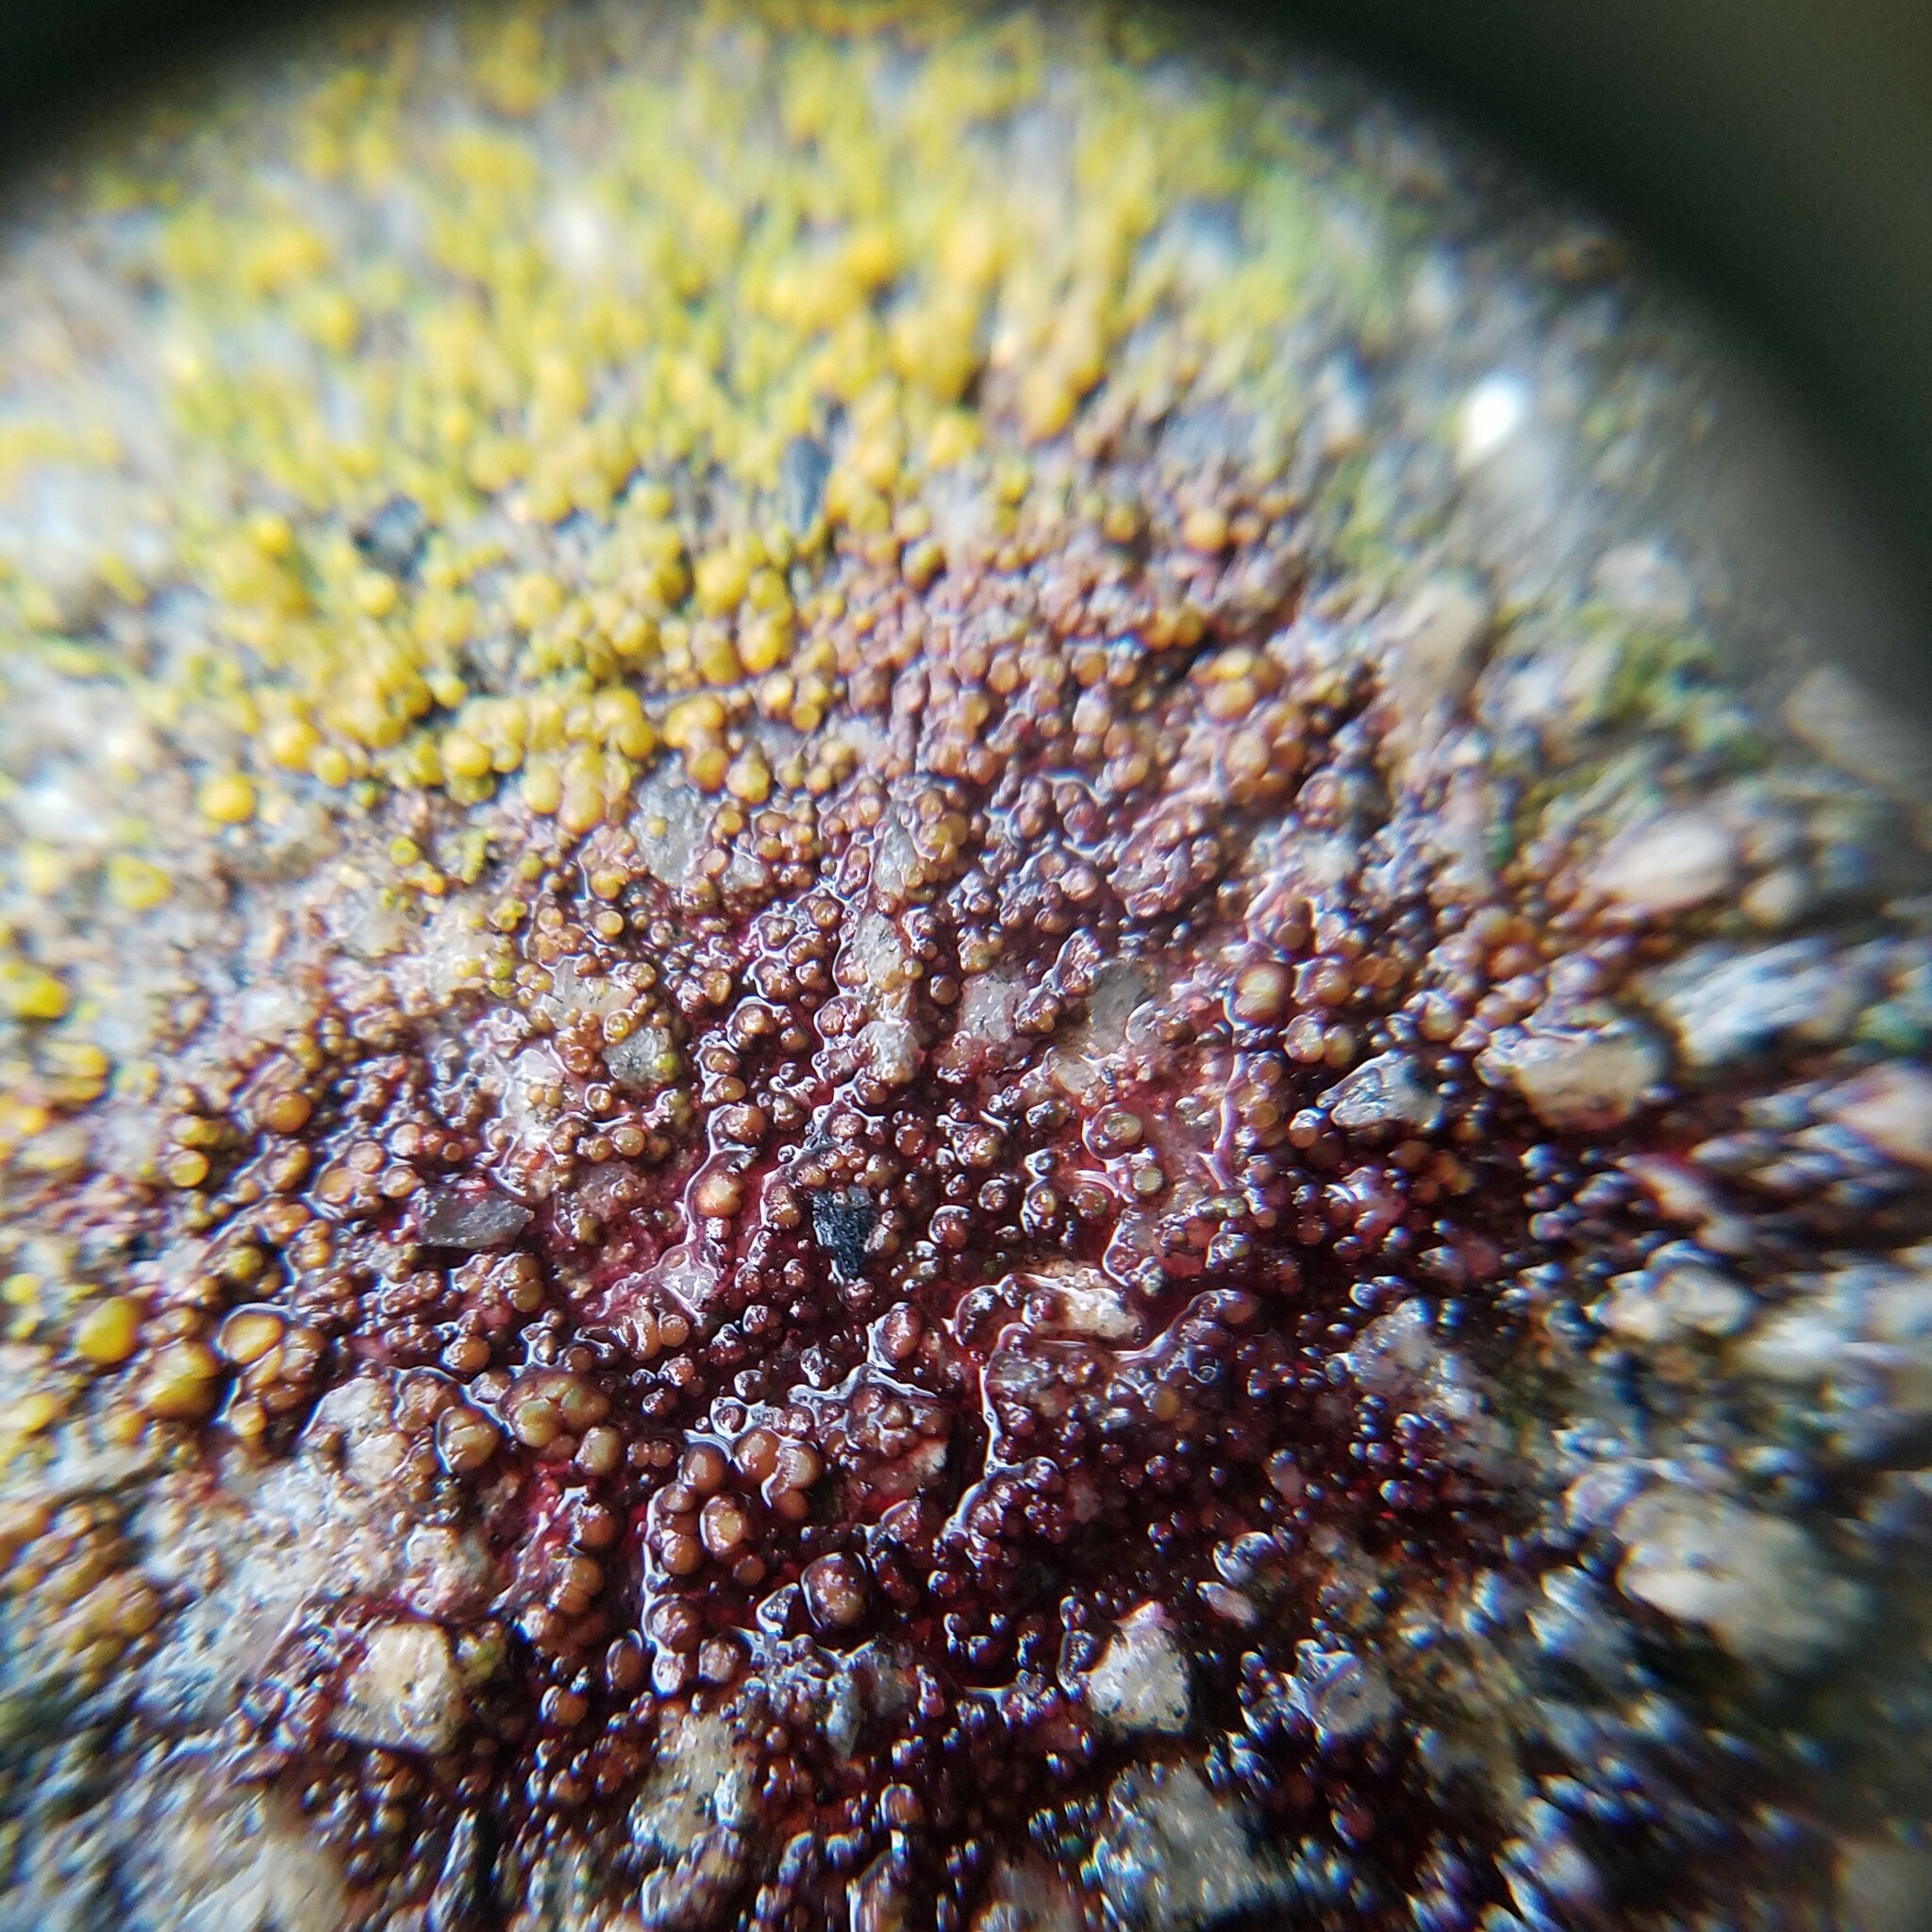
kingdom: Fungi
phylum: Ascomycota
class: Lecanoromycetes
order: Teloschistales
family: Teloschistaceae
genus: Gyalolechia
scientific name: Gyalolechia flavovirescens
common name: Sulphur firedot
